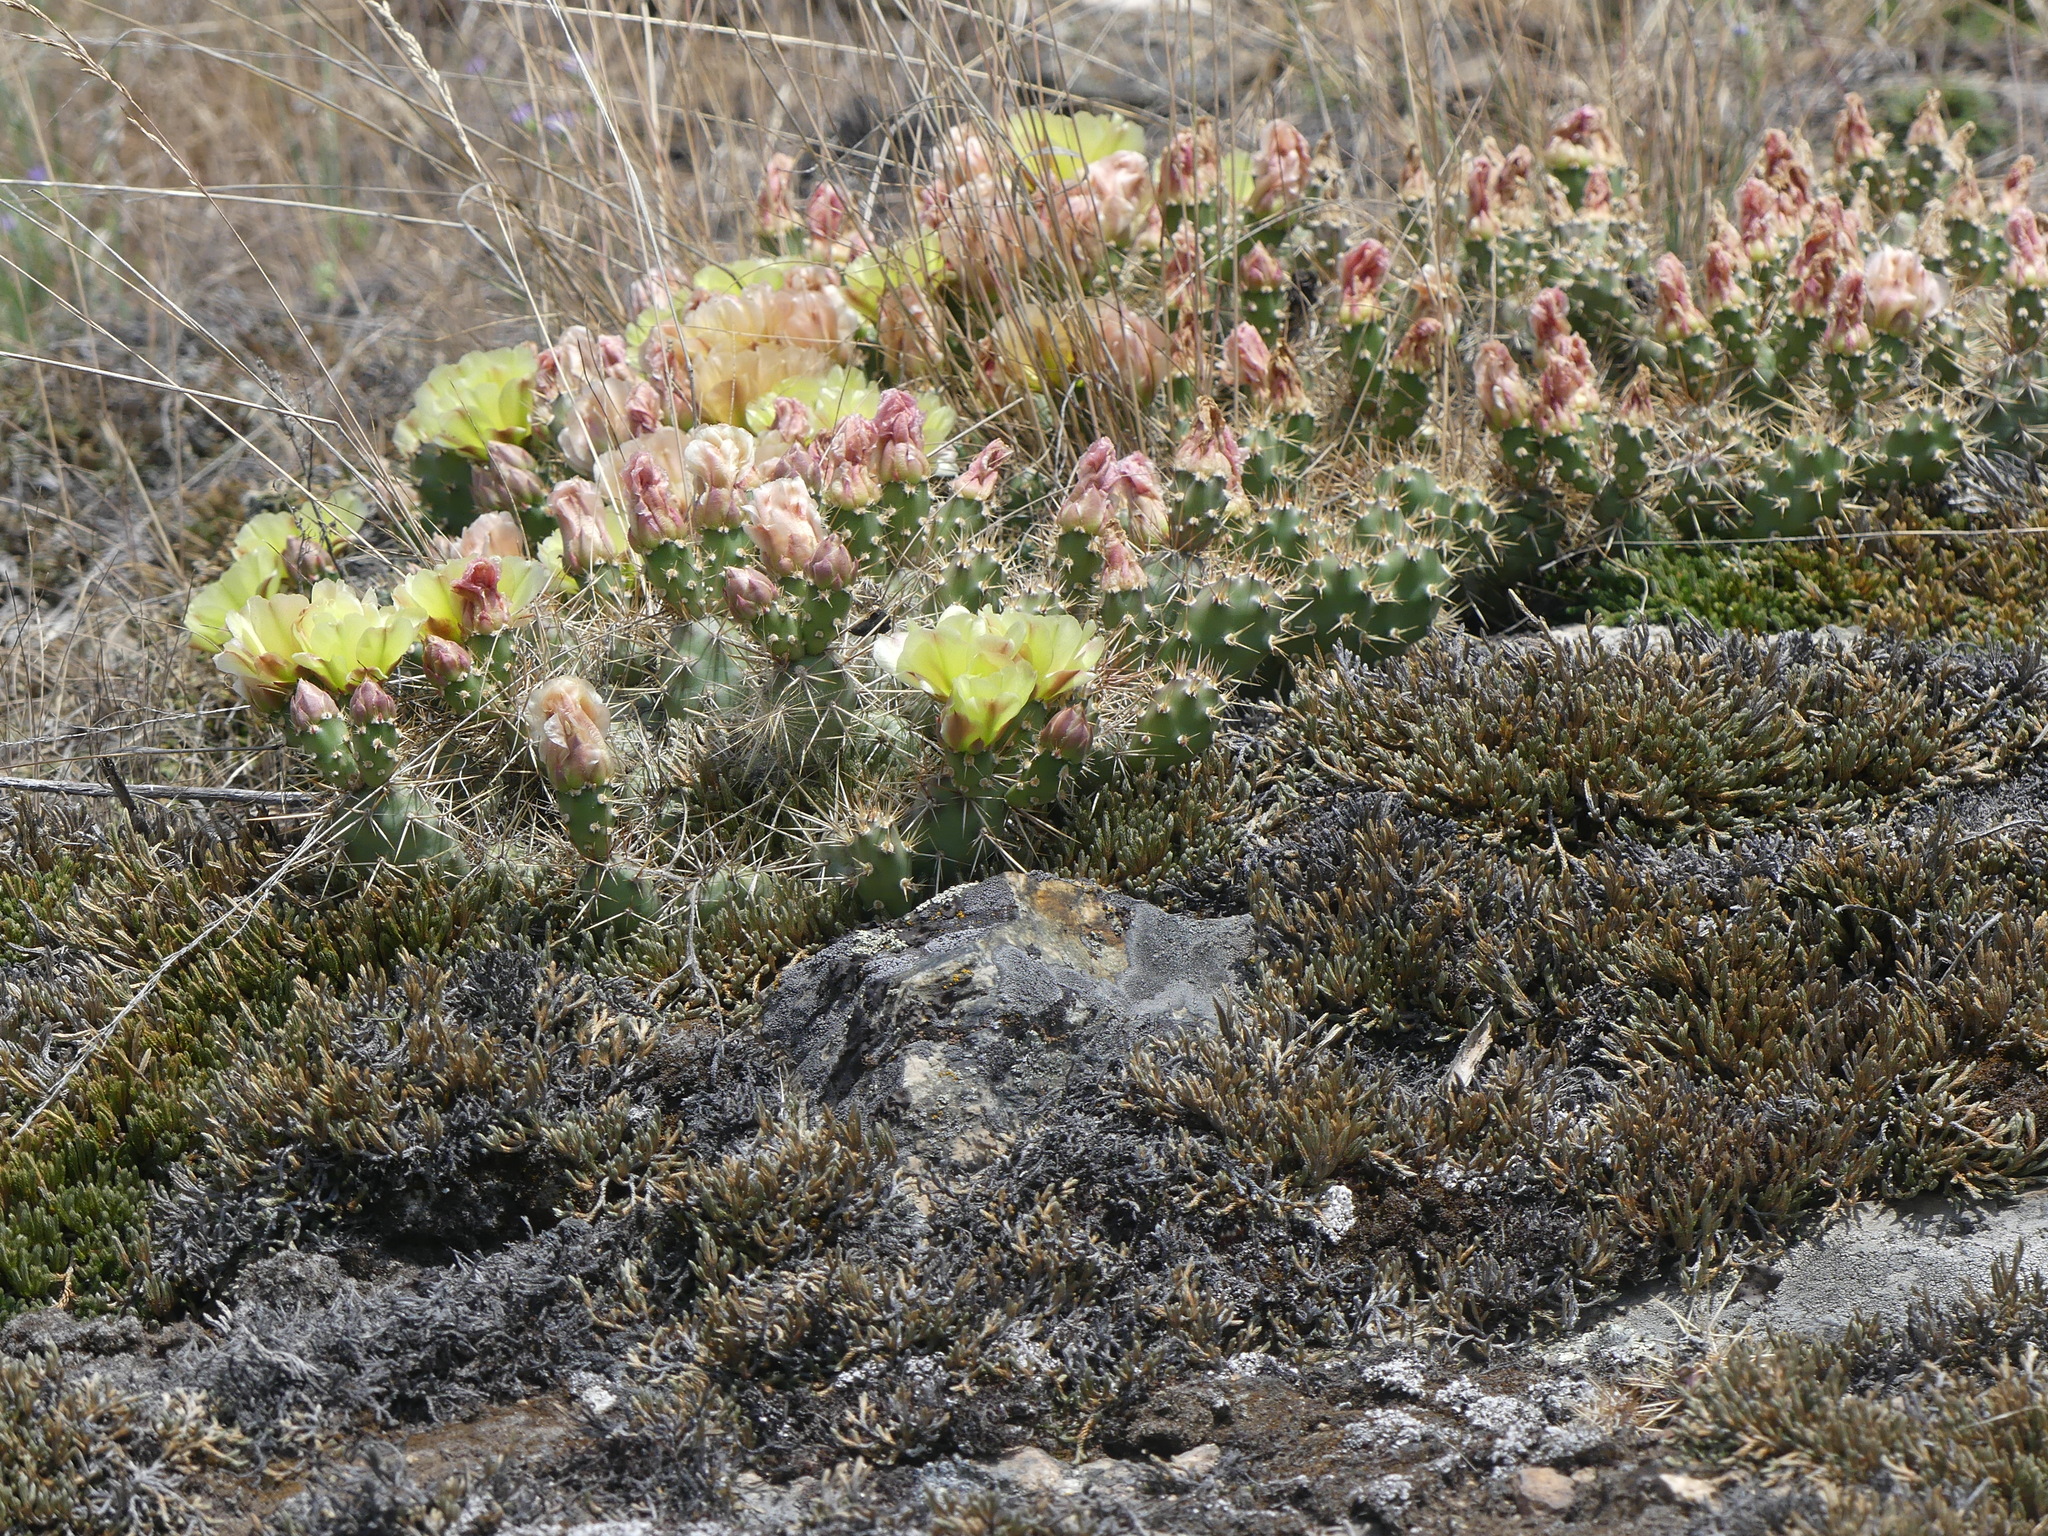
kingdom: Plantae
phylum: Tracheophyta
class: Magnoliopsida
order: Caryophyllales
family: Cactaceae
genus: Opuntia
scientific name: Opuntia fragilis
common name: Brittle cactus
